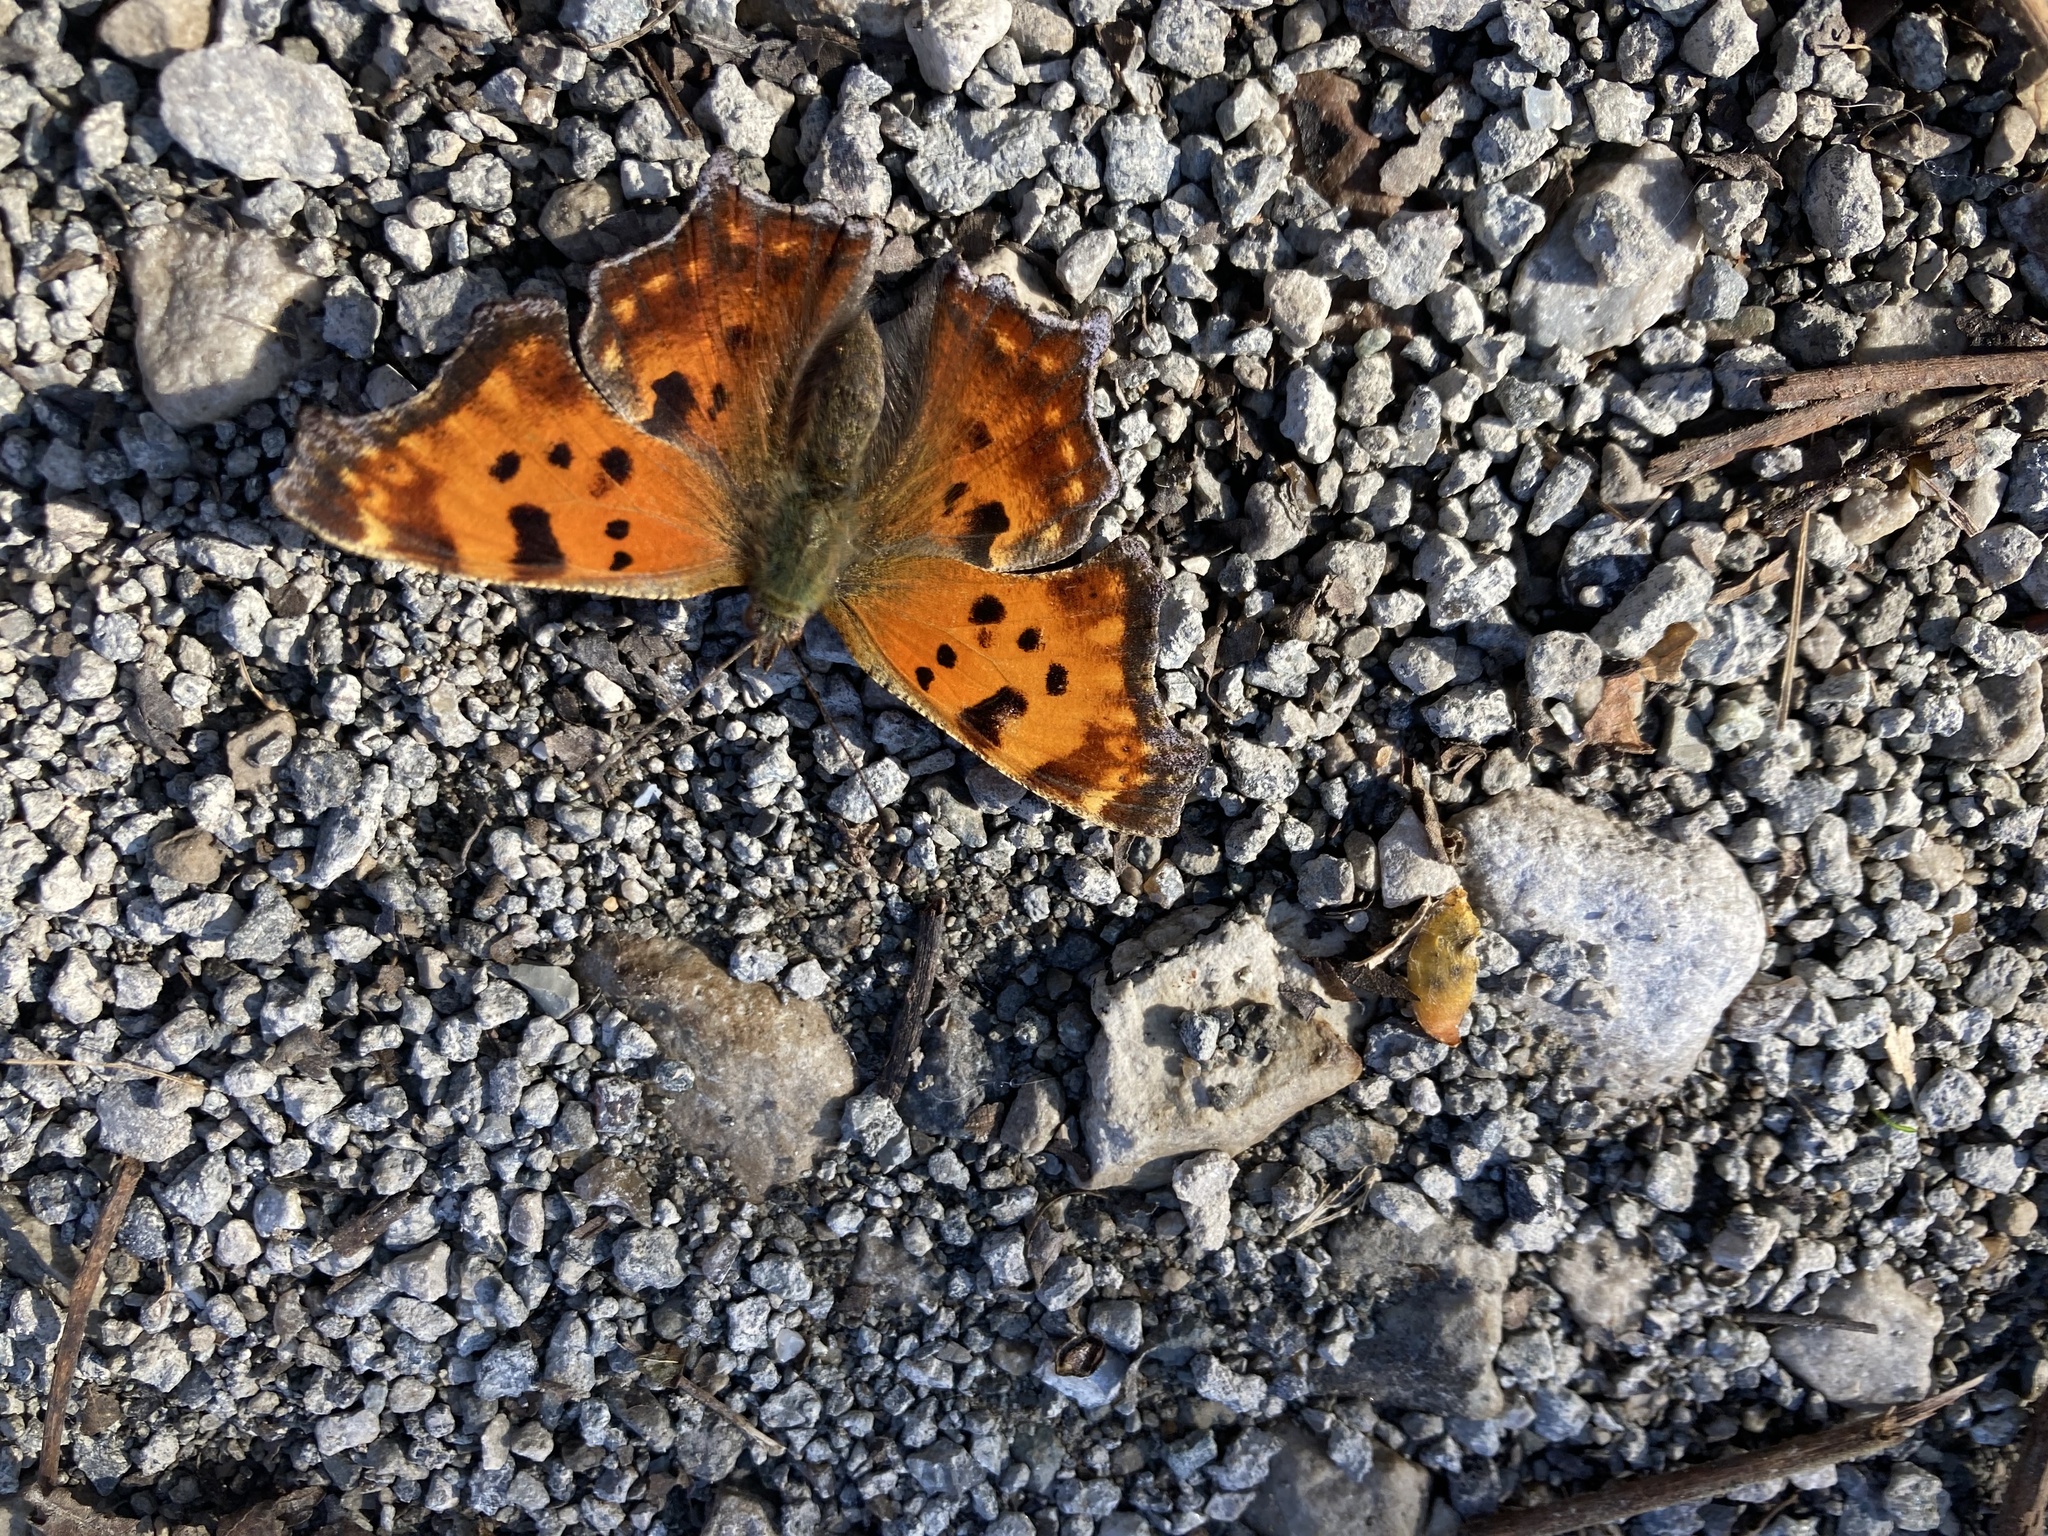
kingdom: Animalia
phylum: Arthropoda
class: Insecta
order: Lepidoptera
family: Nymphalidae
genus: Polygonia
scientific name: Polygonia comma
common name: Eastern comma
